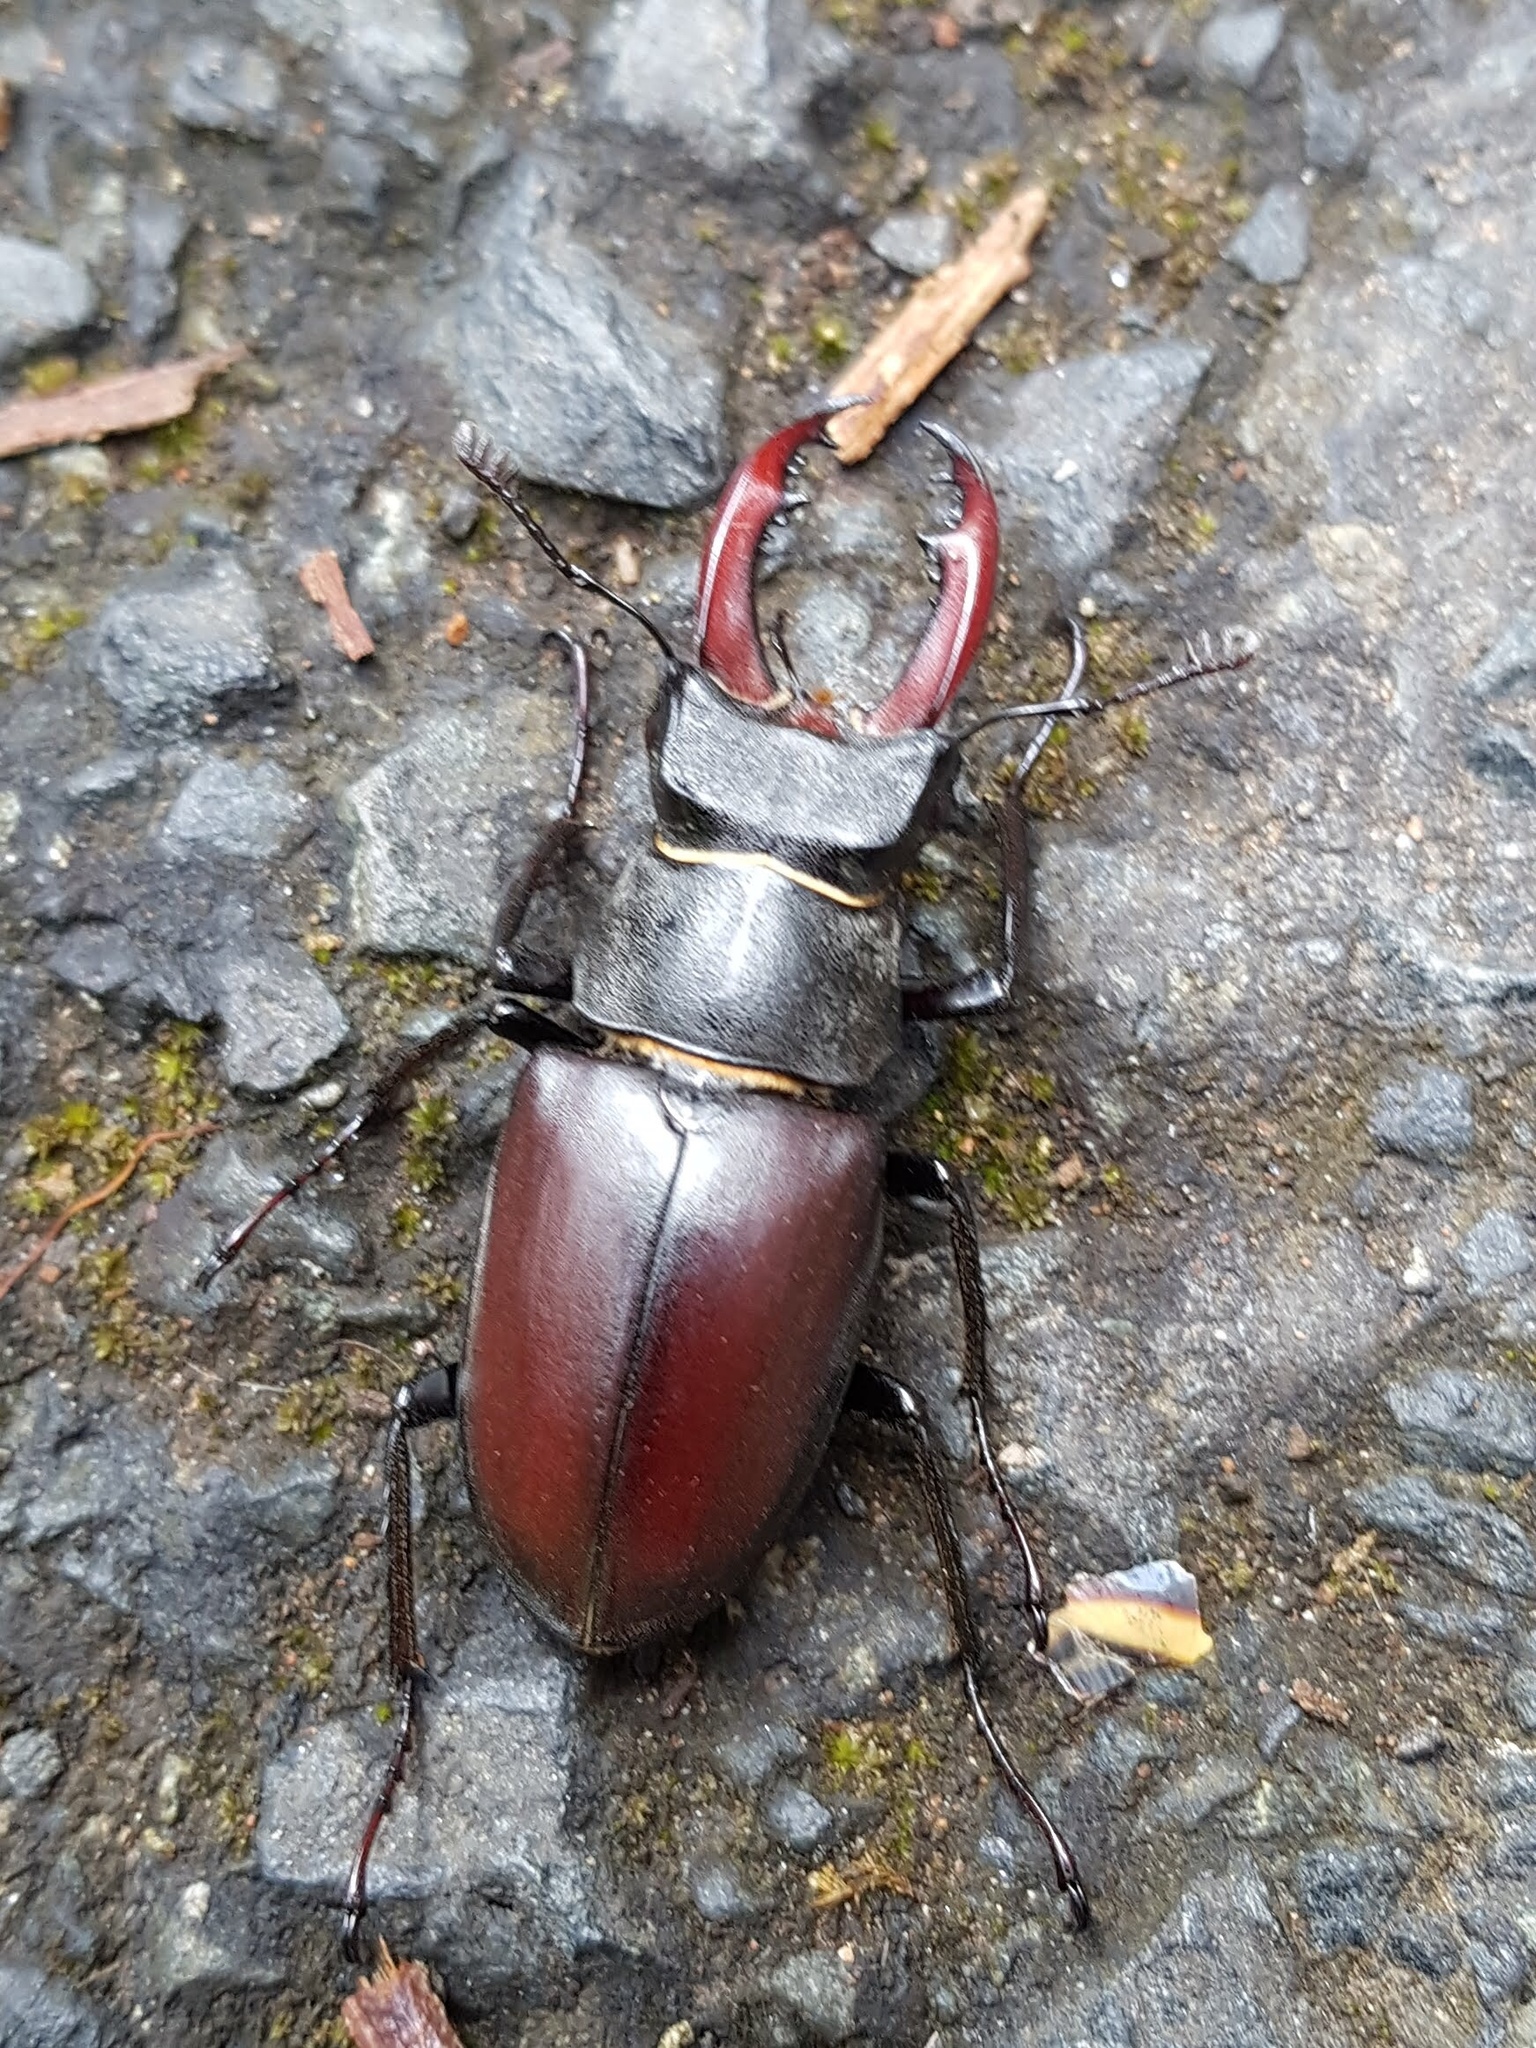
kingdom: Animalia
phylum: Arthropoda
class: Insecta
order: Coleoptera
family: Lucanidae
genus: Lucanus
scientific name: Lucanus cervus
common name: Stag beetle
